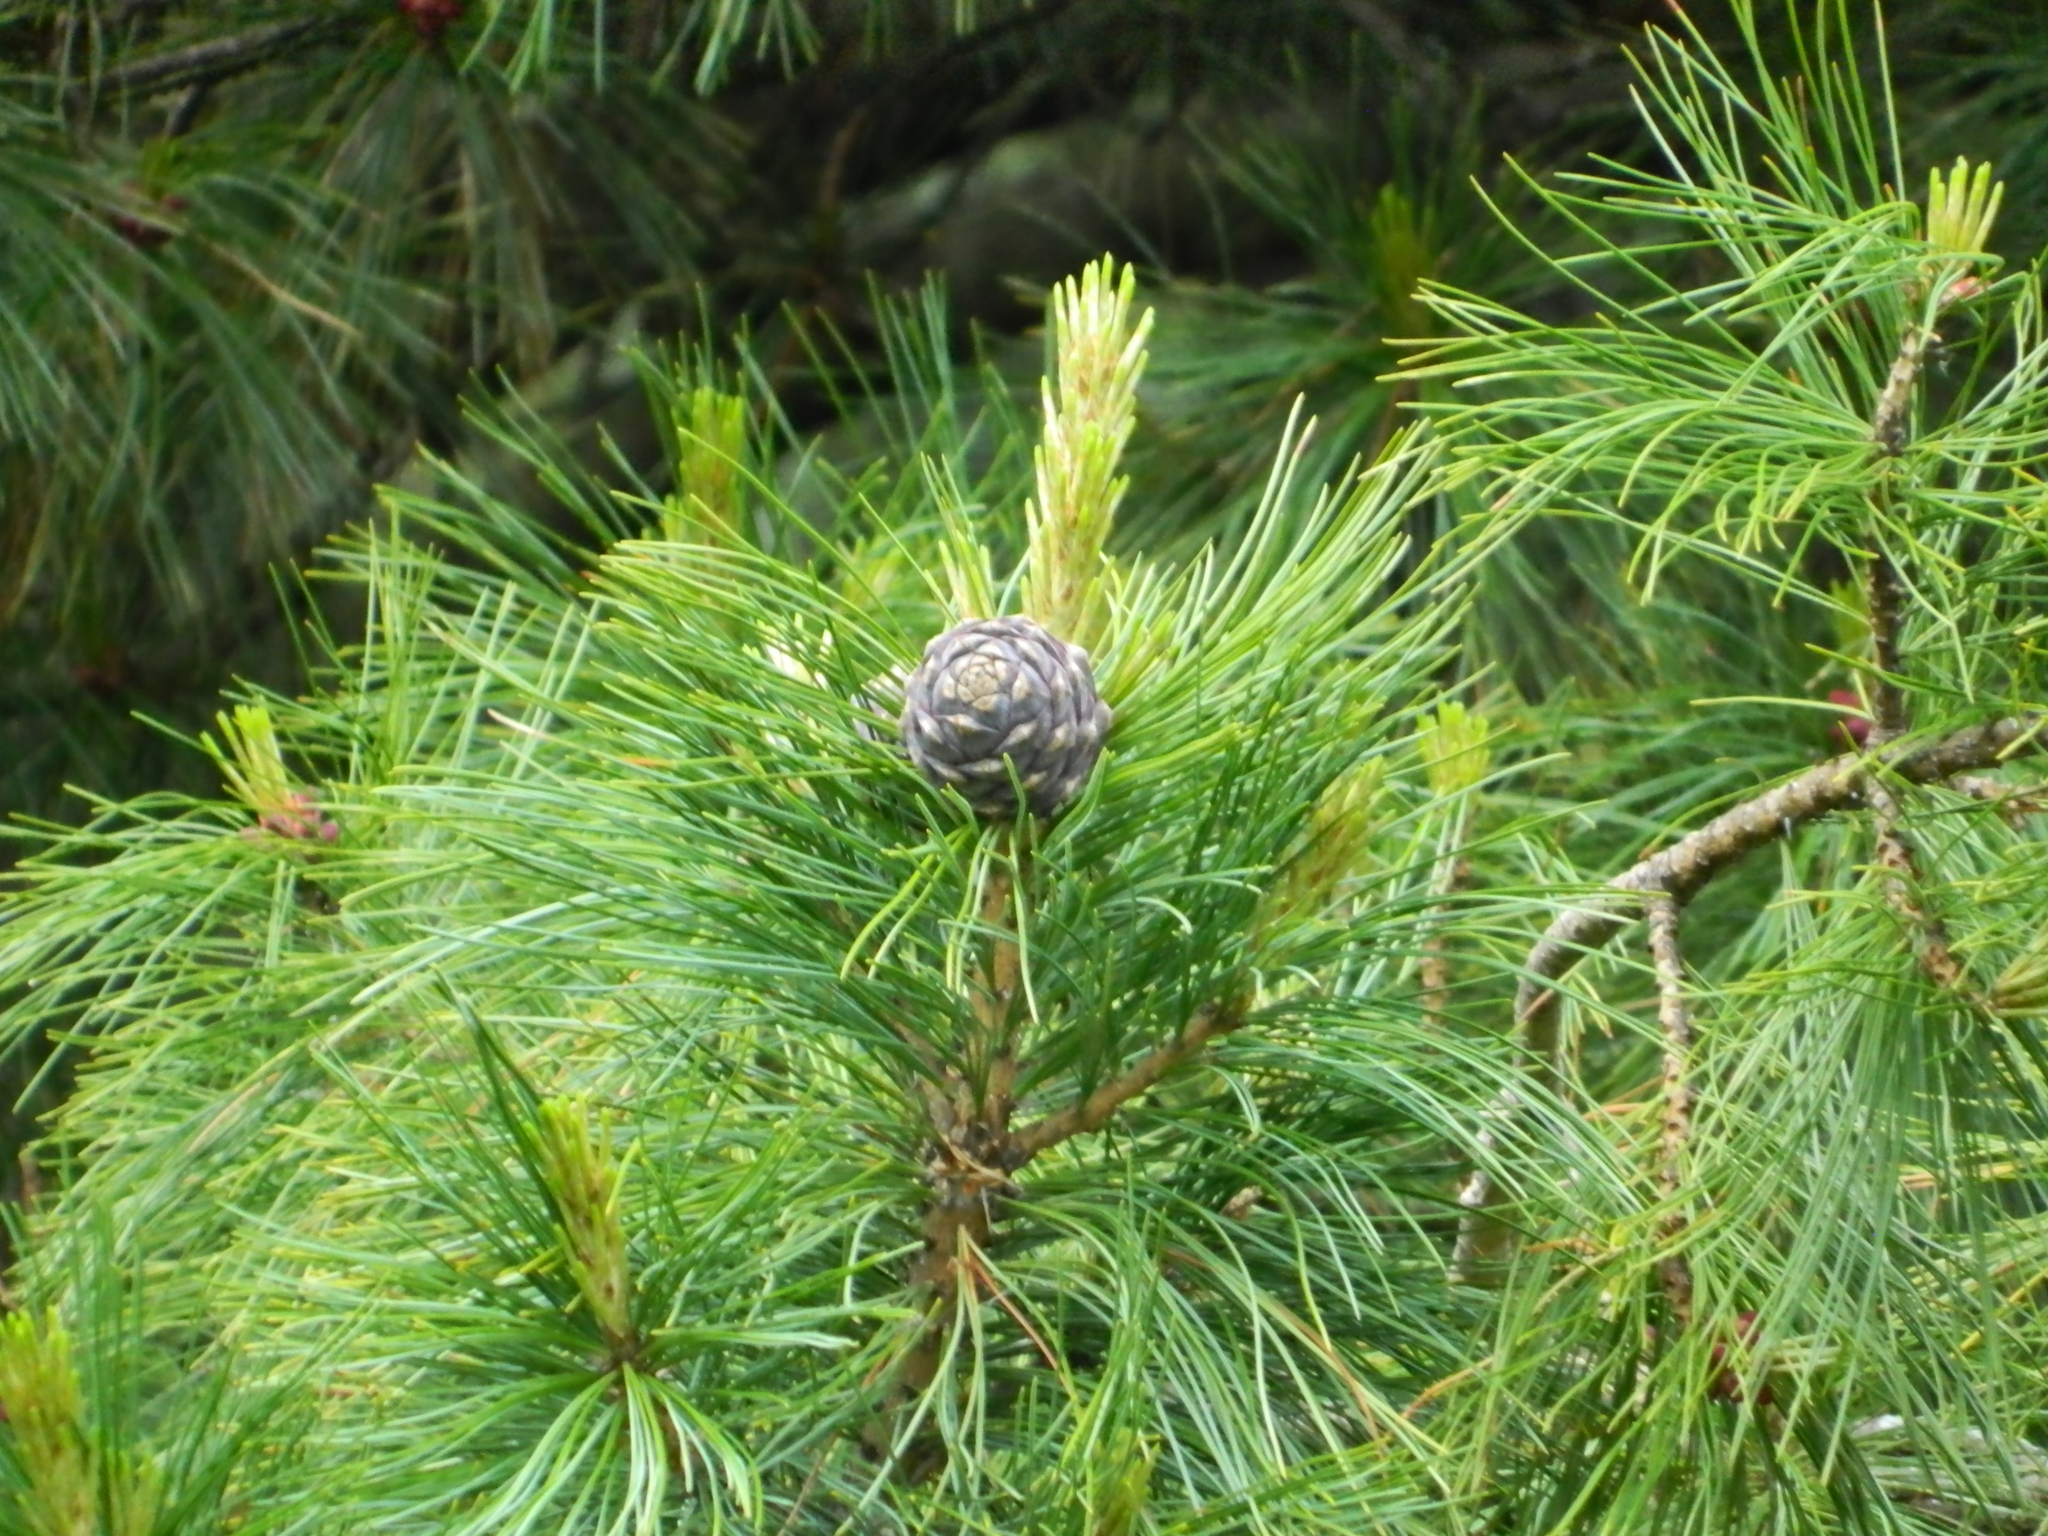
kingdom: Plantae
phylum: Tracheophyta
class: Pinopsida
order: Pinales
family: Pinaceae
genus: Pinus
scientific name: Pinus sibirica
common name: Siberian pine
